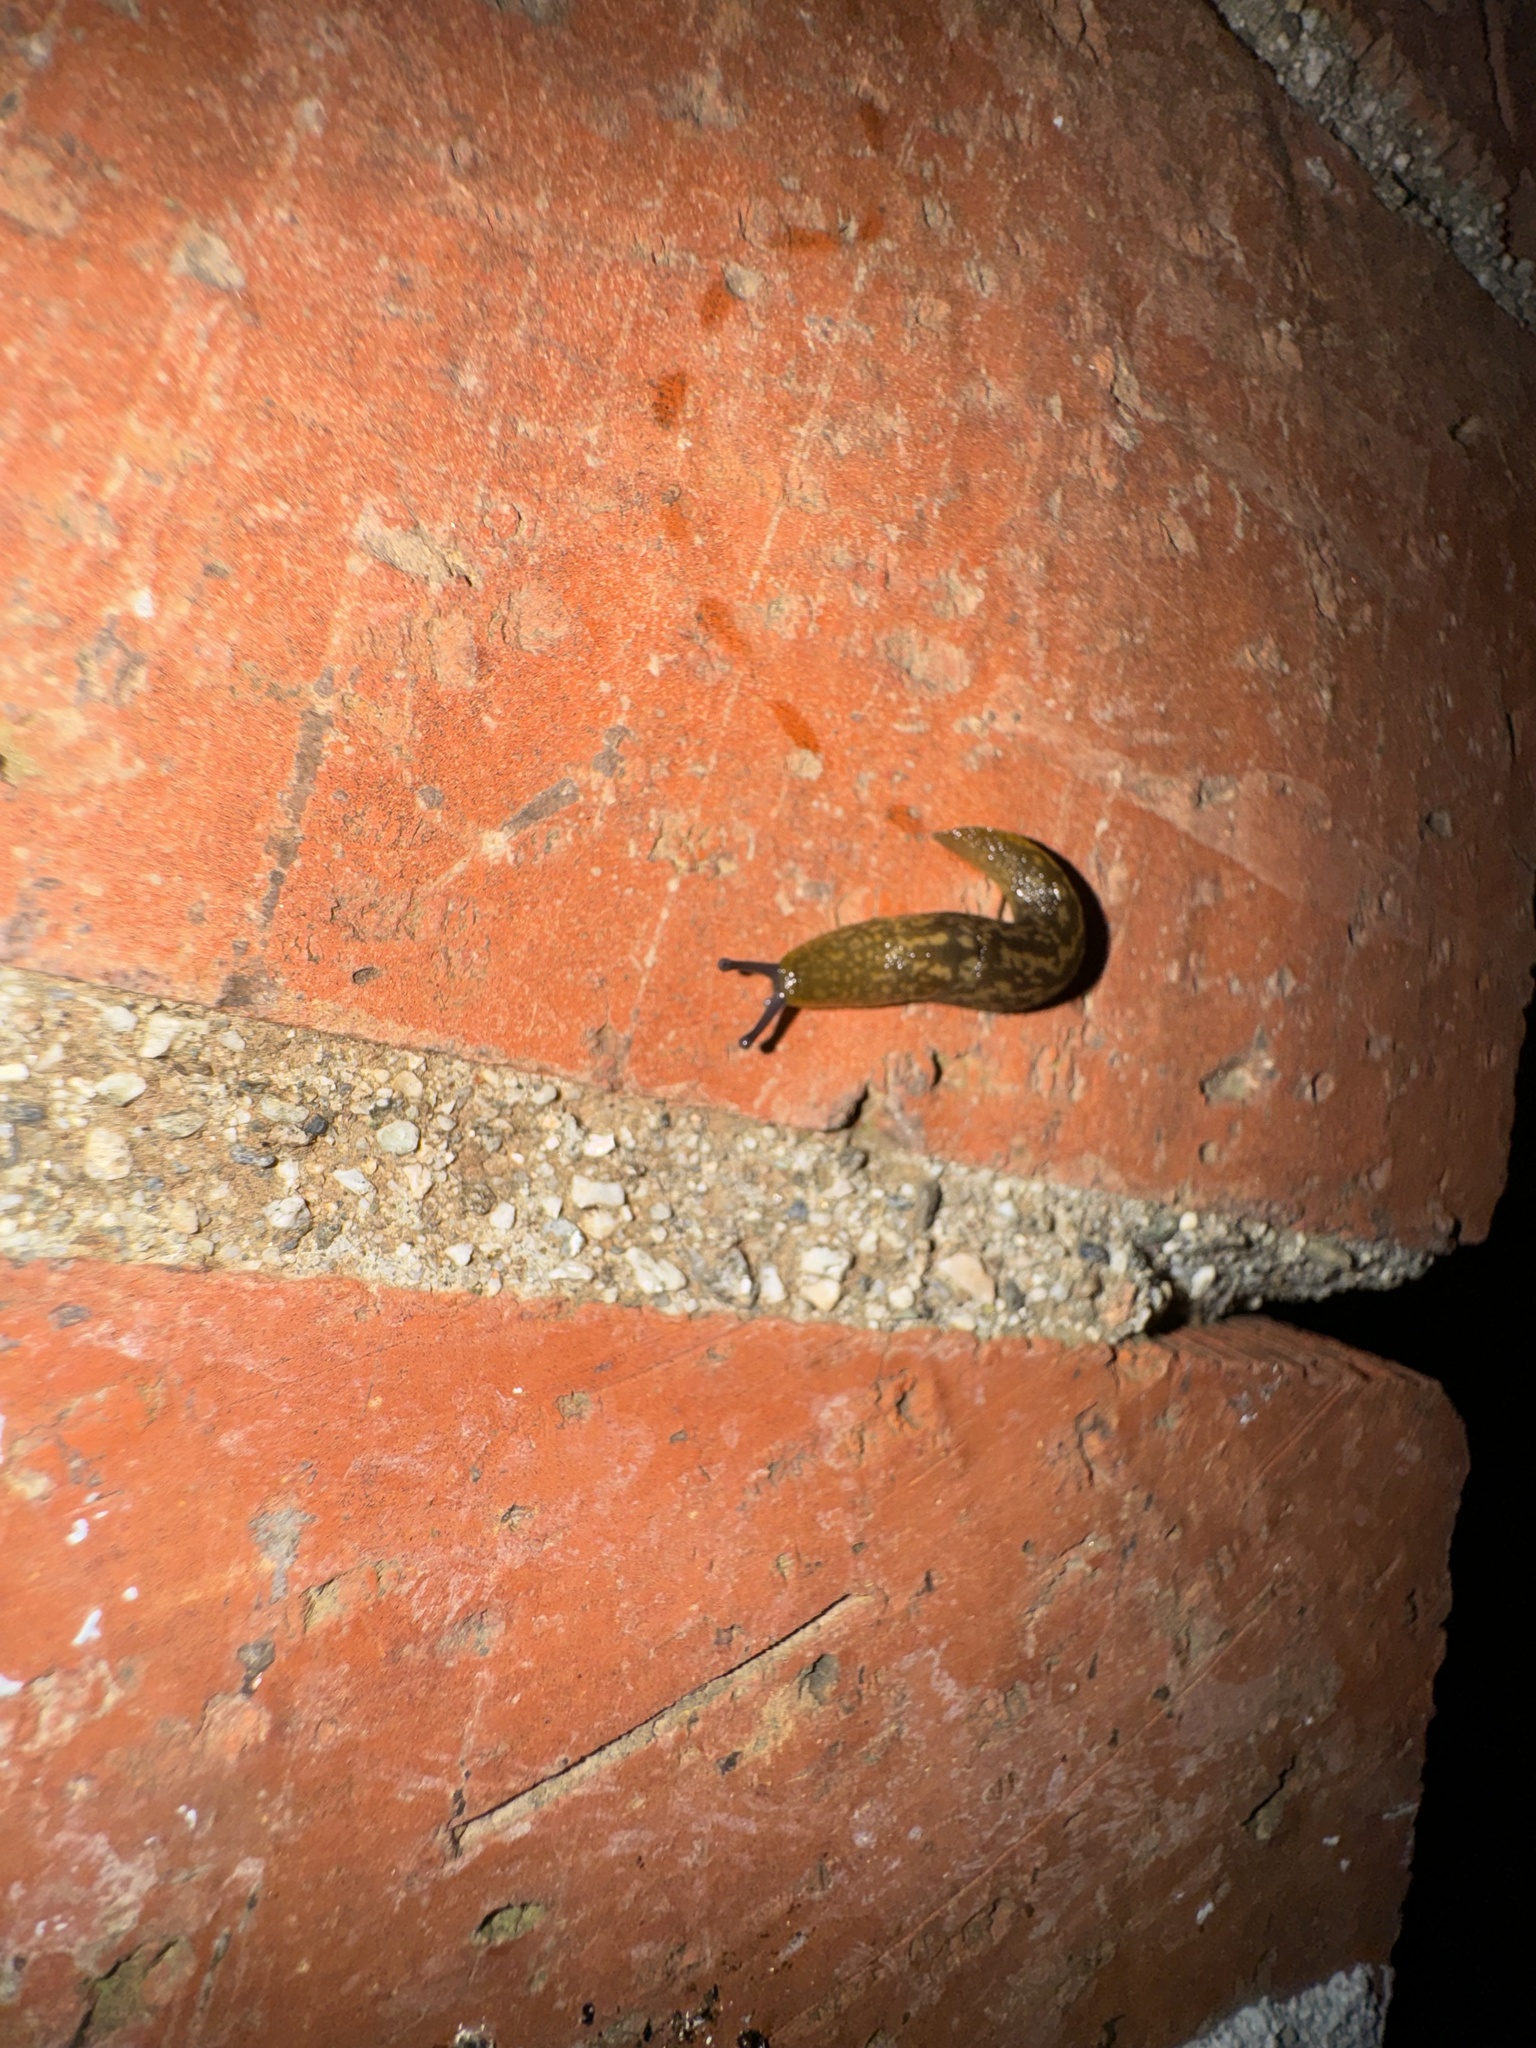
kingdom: Animalia
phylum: Mollusca
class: Gastropoda
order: Stylommatophora
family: Limacidae
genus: Limacus
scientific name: Limacus flavus
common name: Yellow gardenslug
